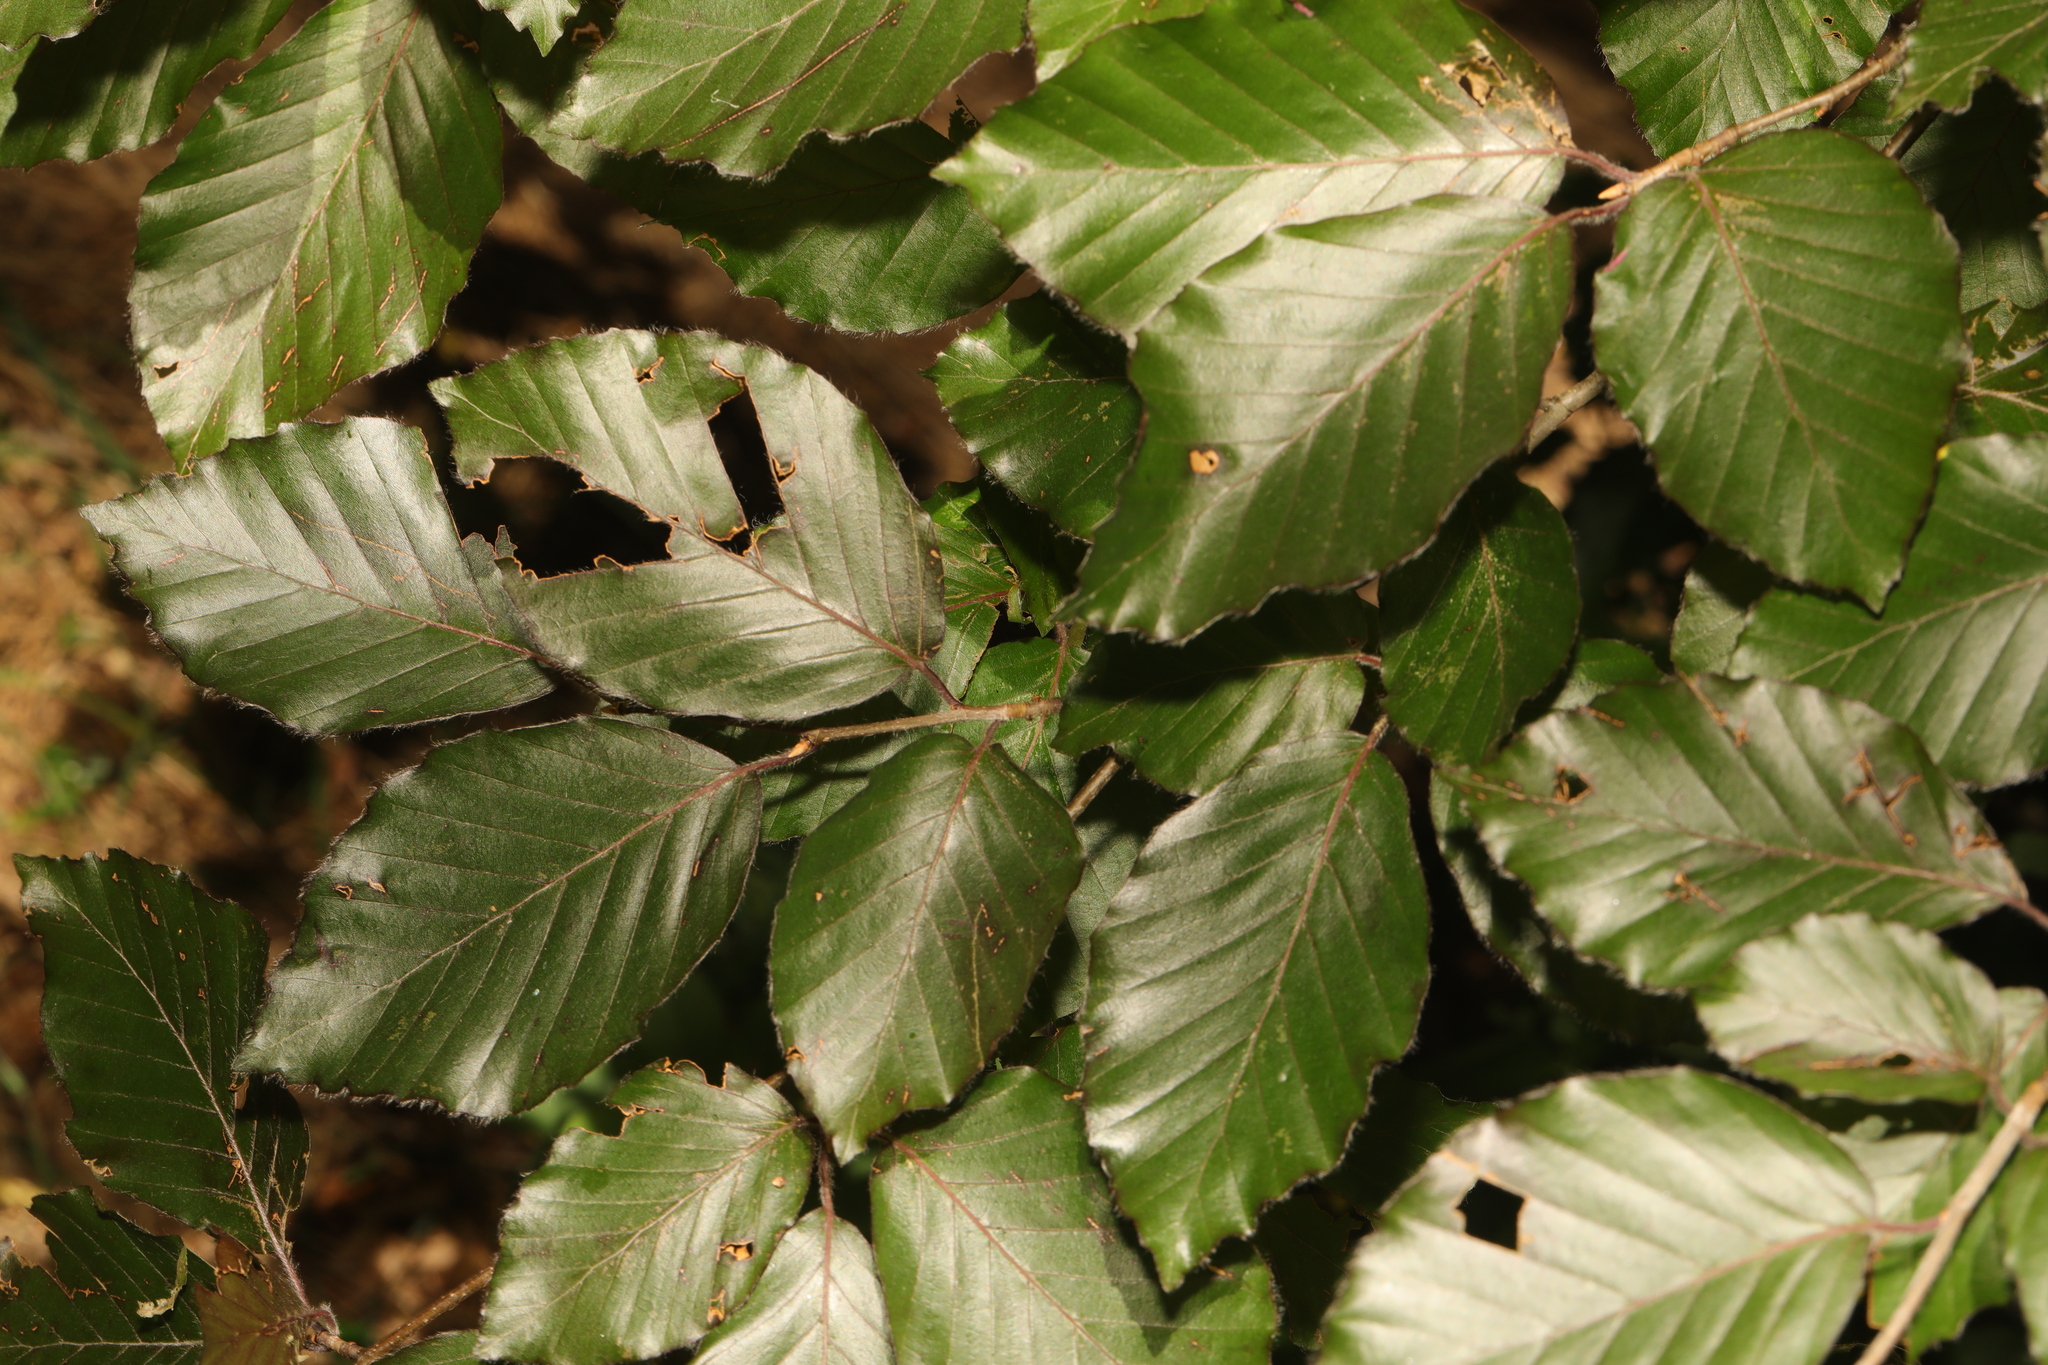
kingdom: Plantae
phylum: Tracheophyta
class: Magnoliopsida
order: Fagales
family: Fagaceae
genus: Fagus
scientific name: Fagus sylvatica
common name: Beech
